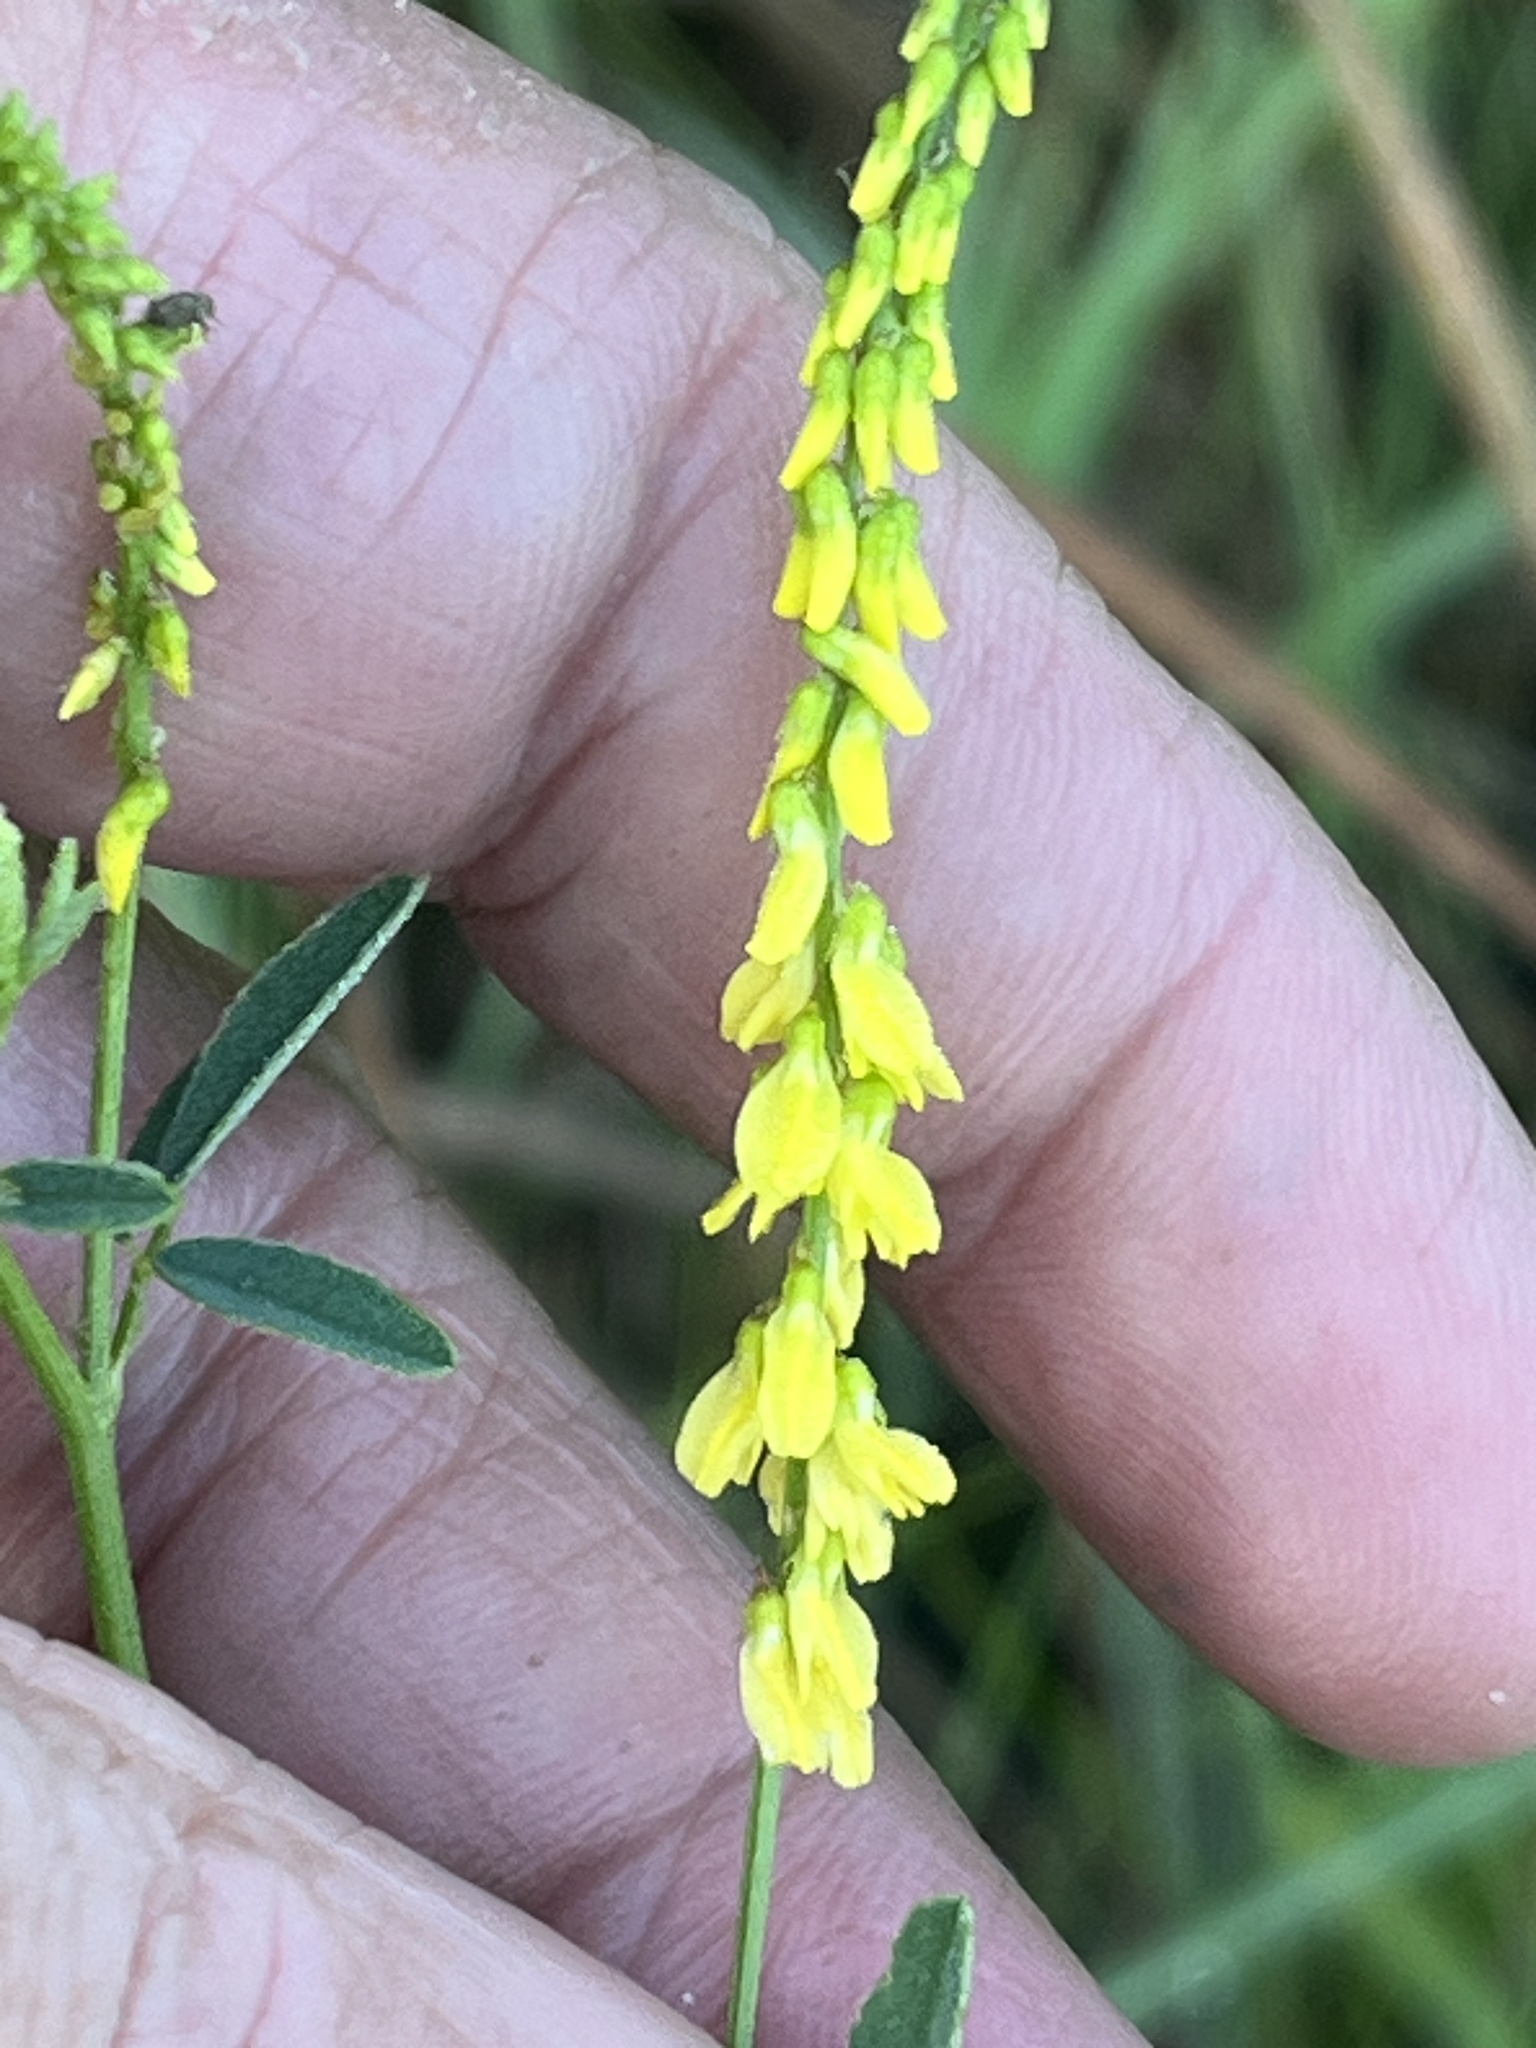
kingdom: Plantae
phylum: Tracheophyta
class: Magnoliopsida
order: Fabales
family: Fabaceae
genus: Melilotus
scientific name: Melilotus officinalis
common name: Sweetclover
